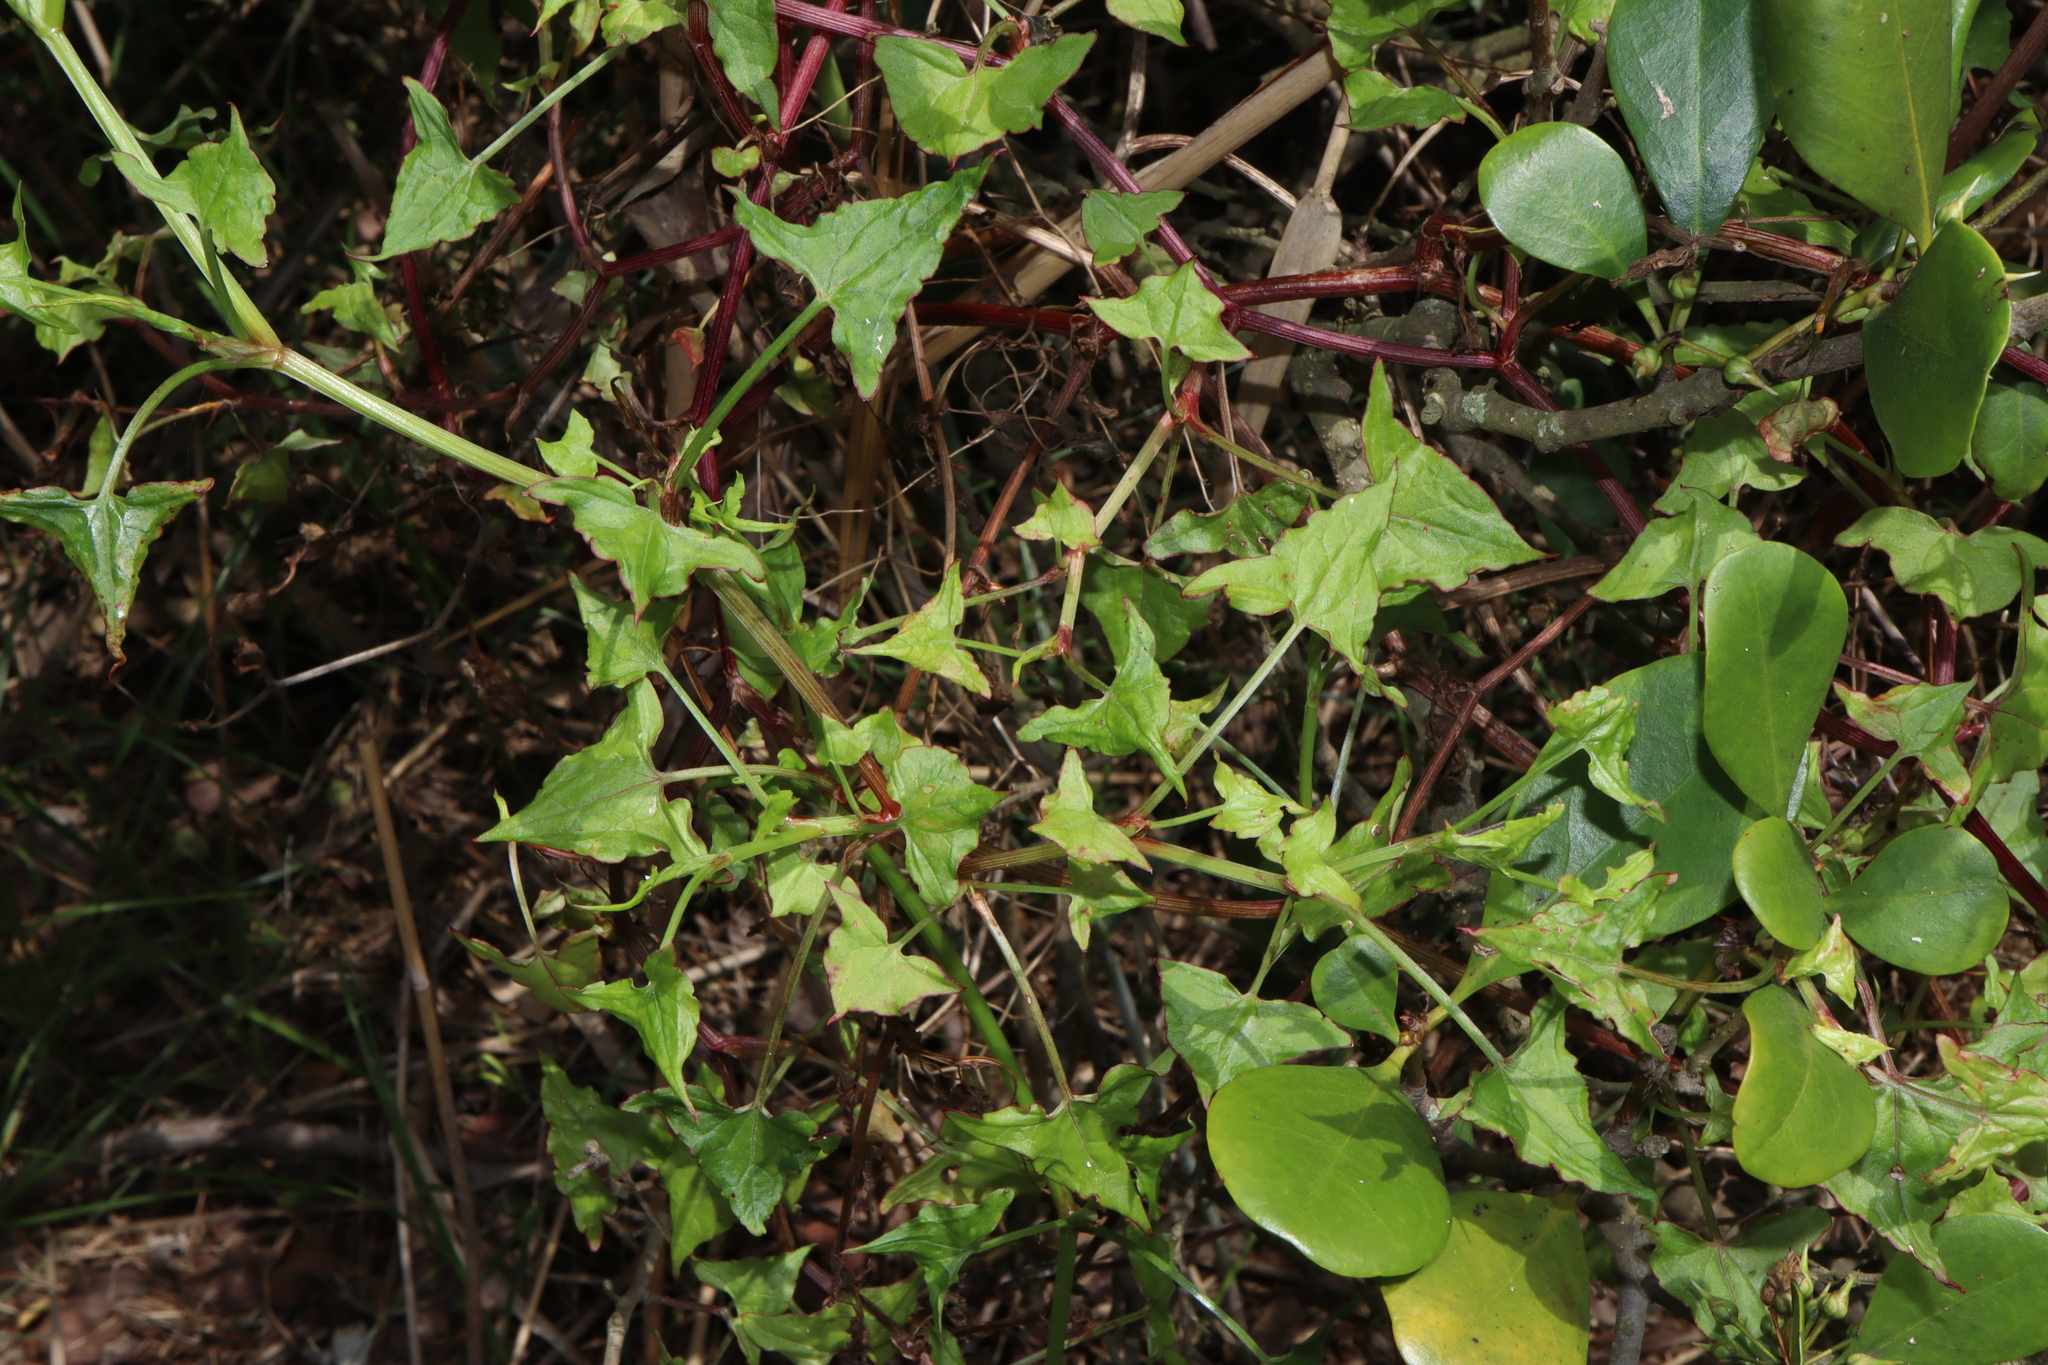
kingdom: Plantae
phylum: Tracheophyta
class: Magnoliopsida
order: Caryophyllales
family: Polygonaceae
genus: Rumex
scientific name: Rumex sagittatus
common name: Climbing dock
